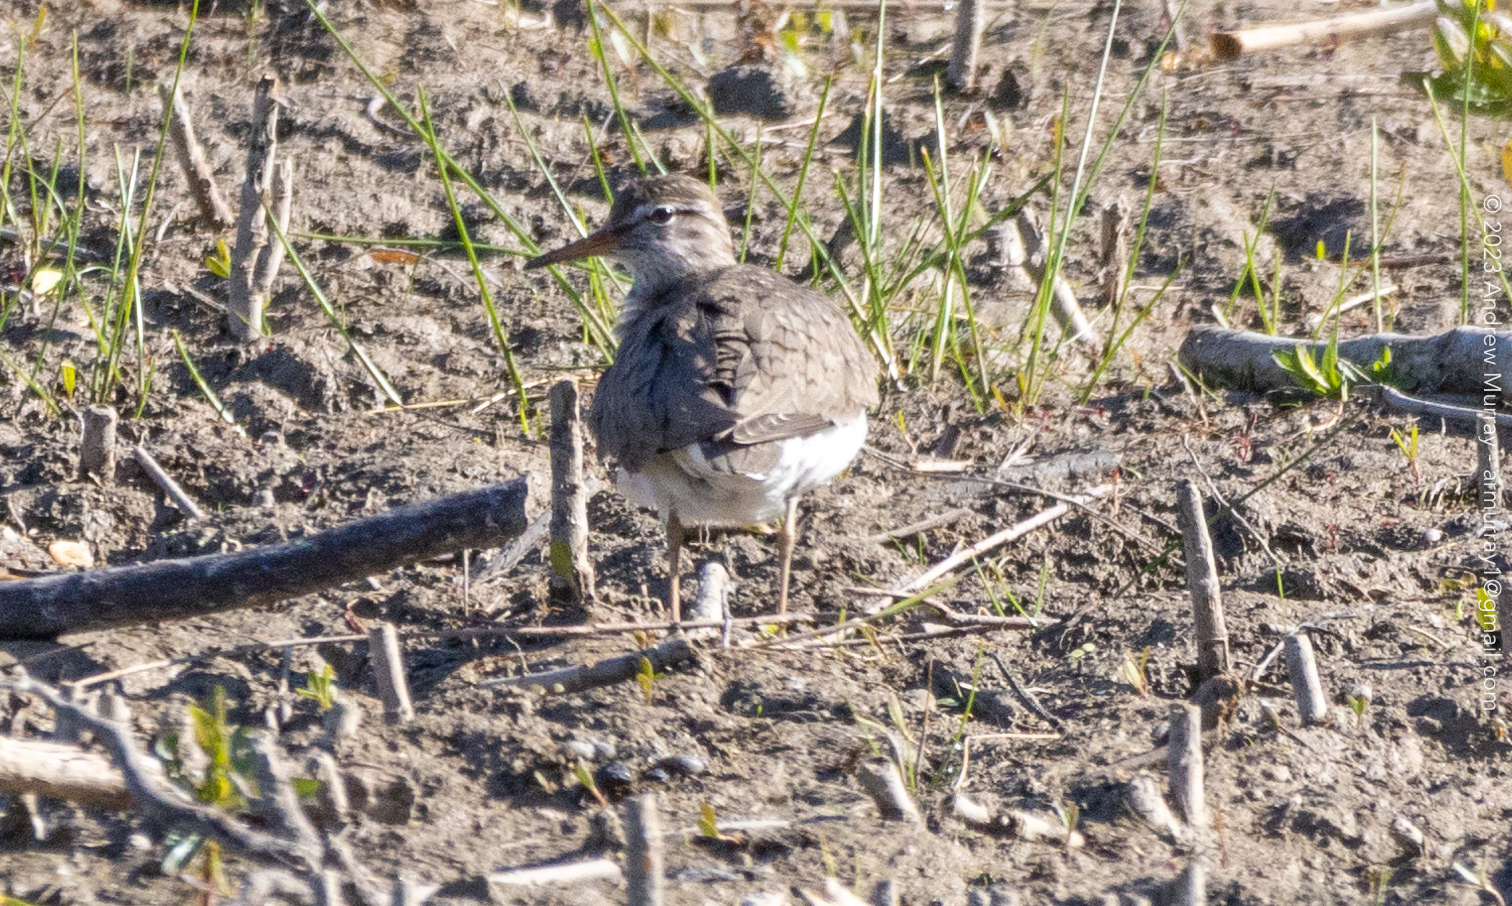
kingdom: Animalia
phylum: Chordata
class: Aves
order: Charadriiformes
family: Scolopacidae
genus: Actitis
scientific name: Actitis macularius
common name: Spotted sandpiper
